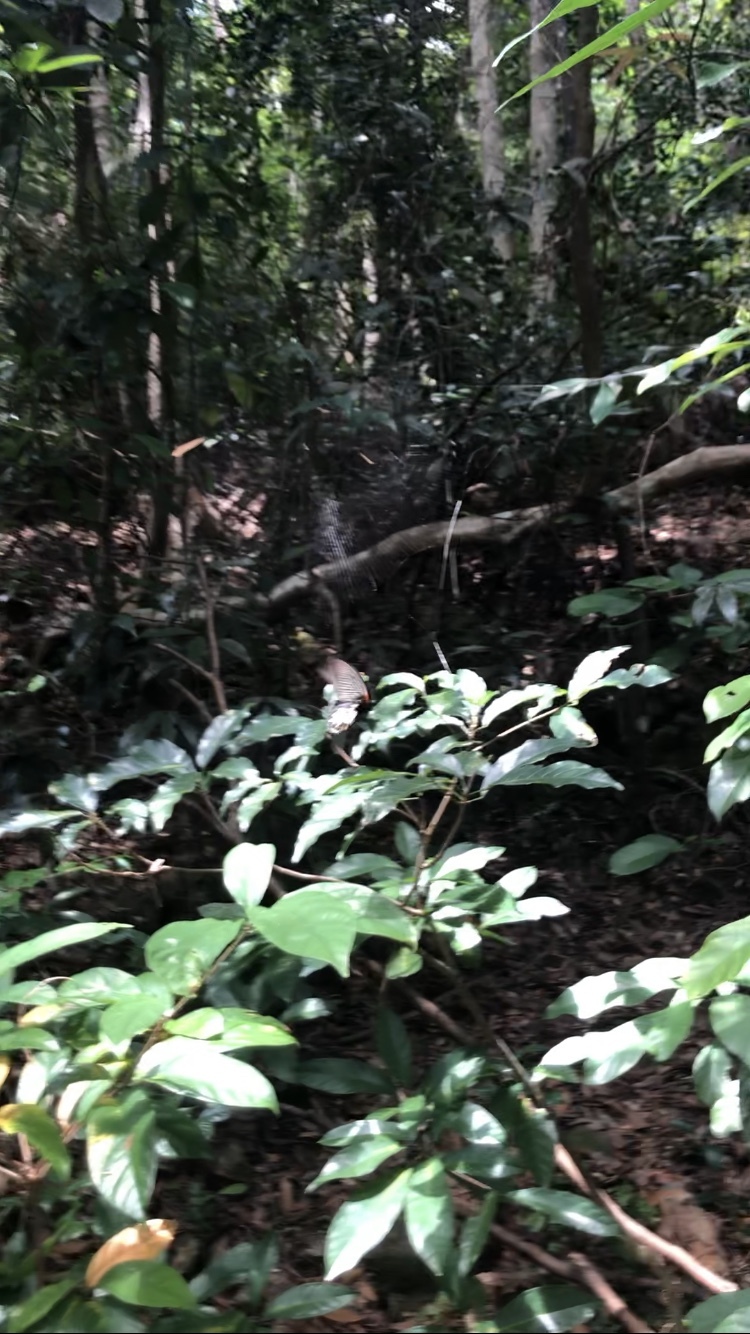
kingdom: Animalia
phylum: Arthropoda
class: Insecta
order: Lepidoptera
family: Papilionidae
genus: Papilio
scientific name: Papilio memnon
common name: Great mormon
